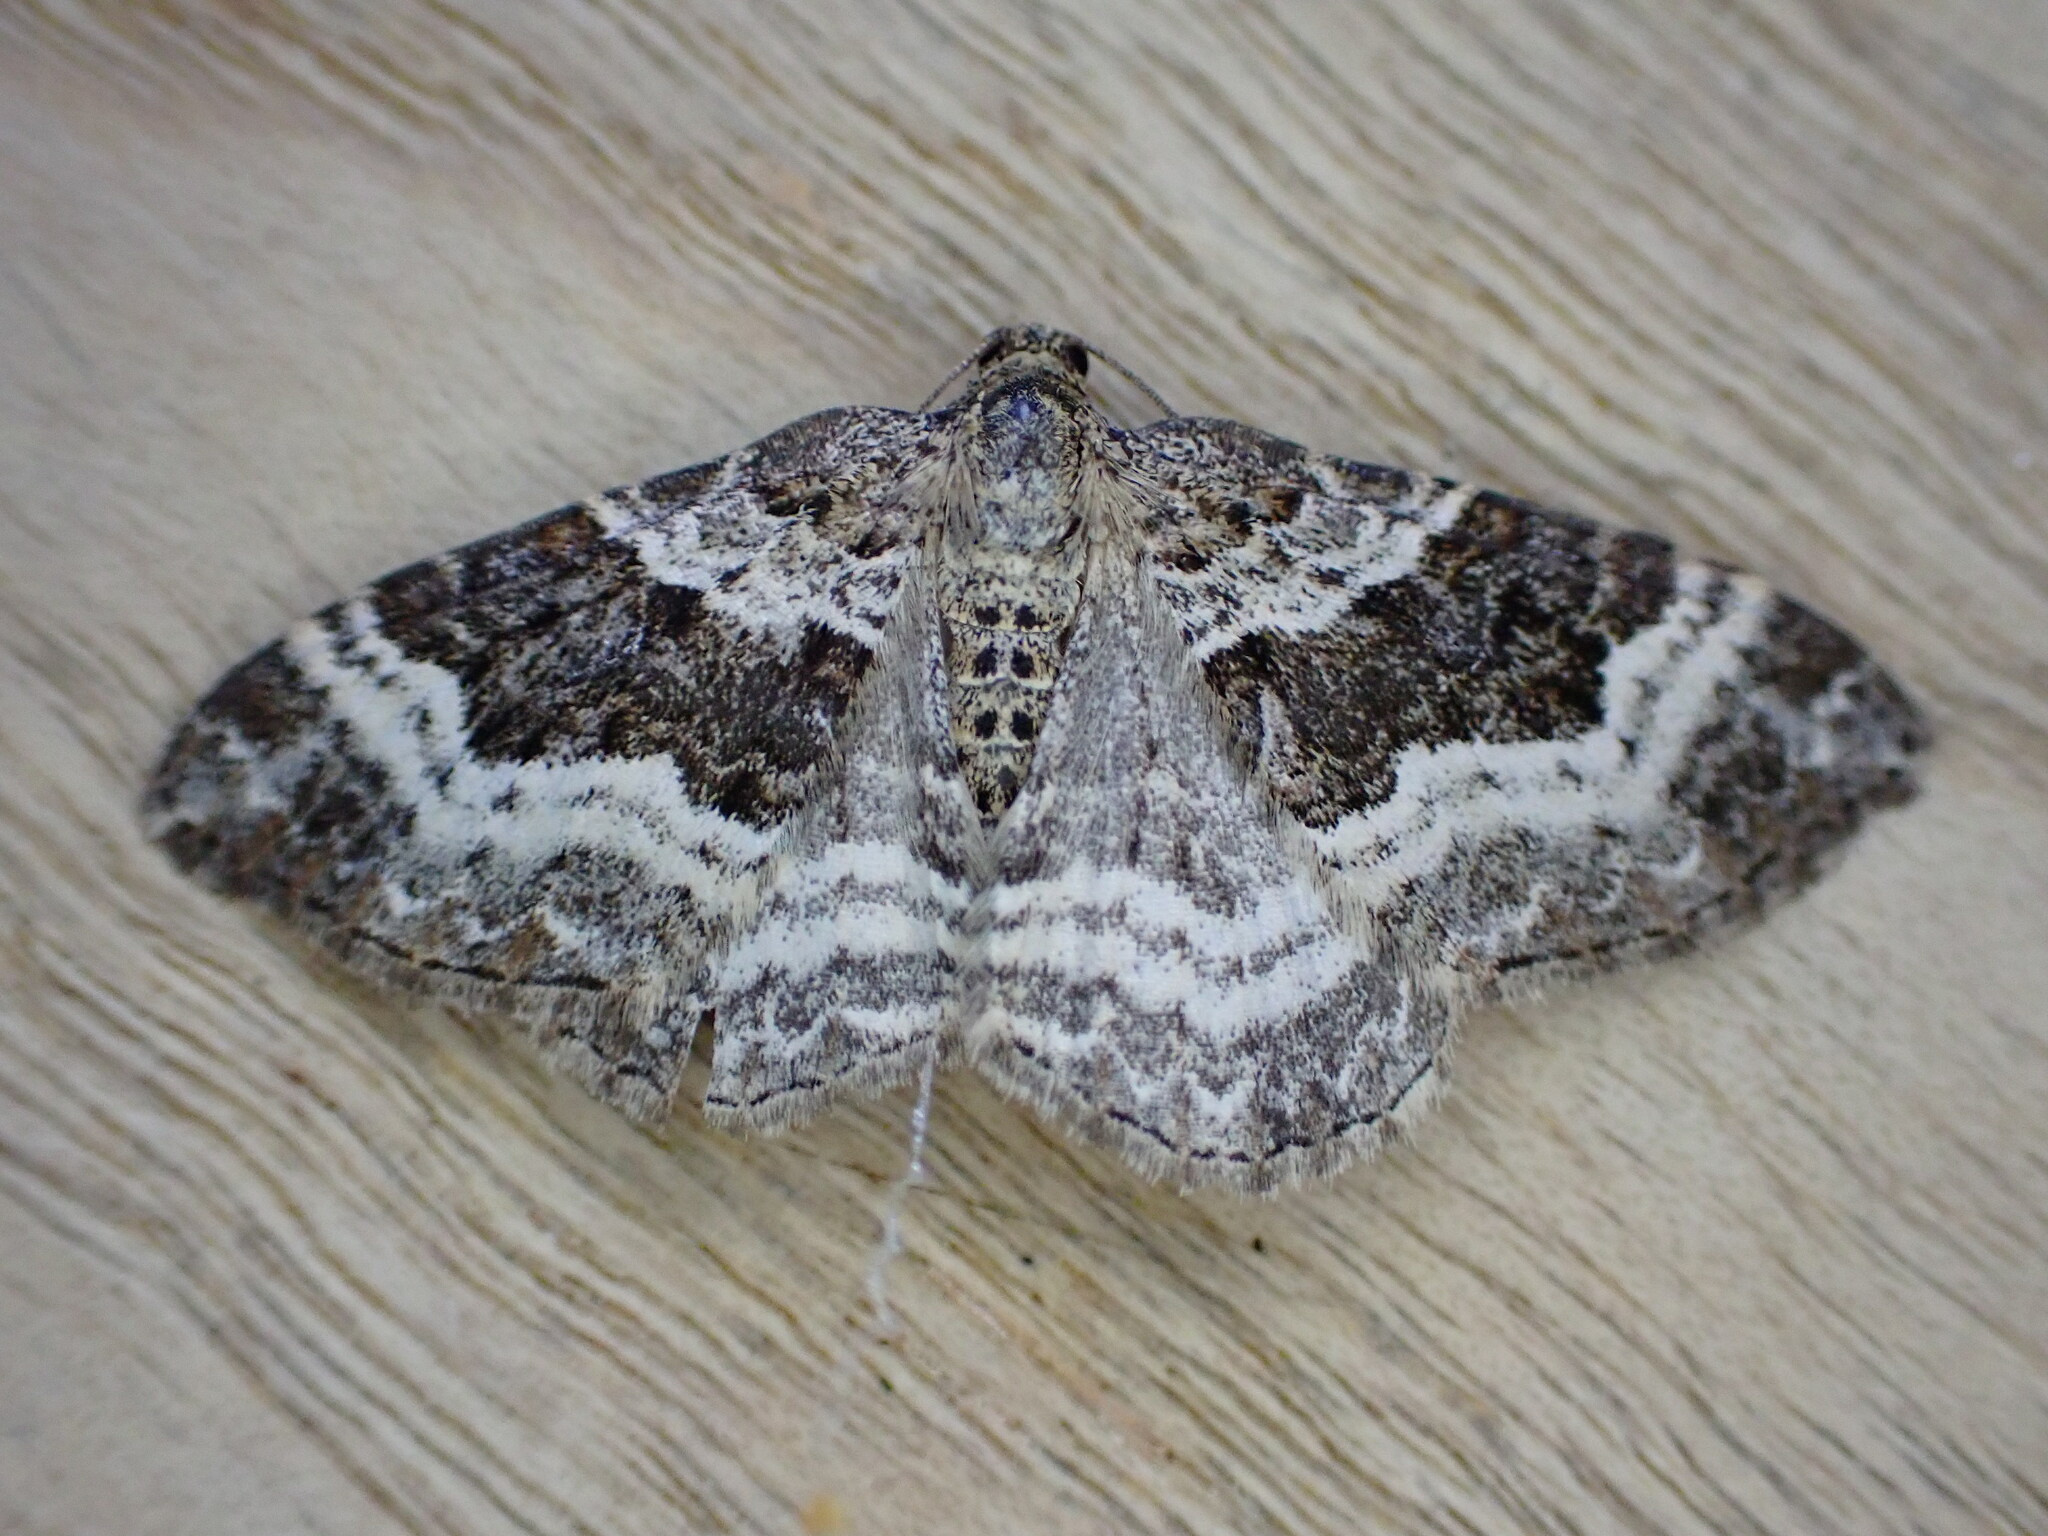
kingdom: Animalia
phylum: Arthropoda
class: Insecta
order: Lepidoptera
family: Geometridae
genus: Epirrhoe
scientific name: Epirrhoe alternata
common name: Common carpet
